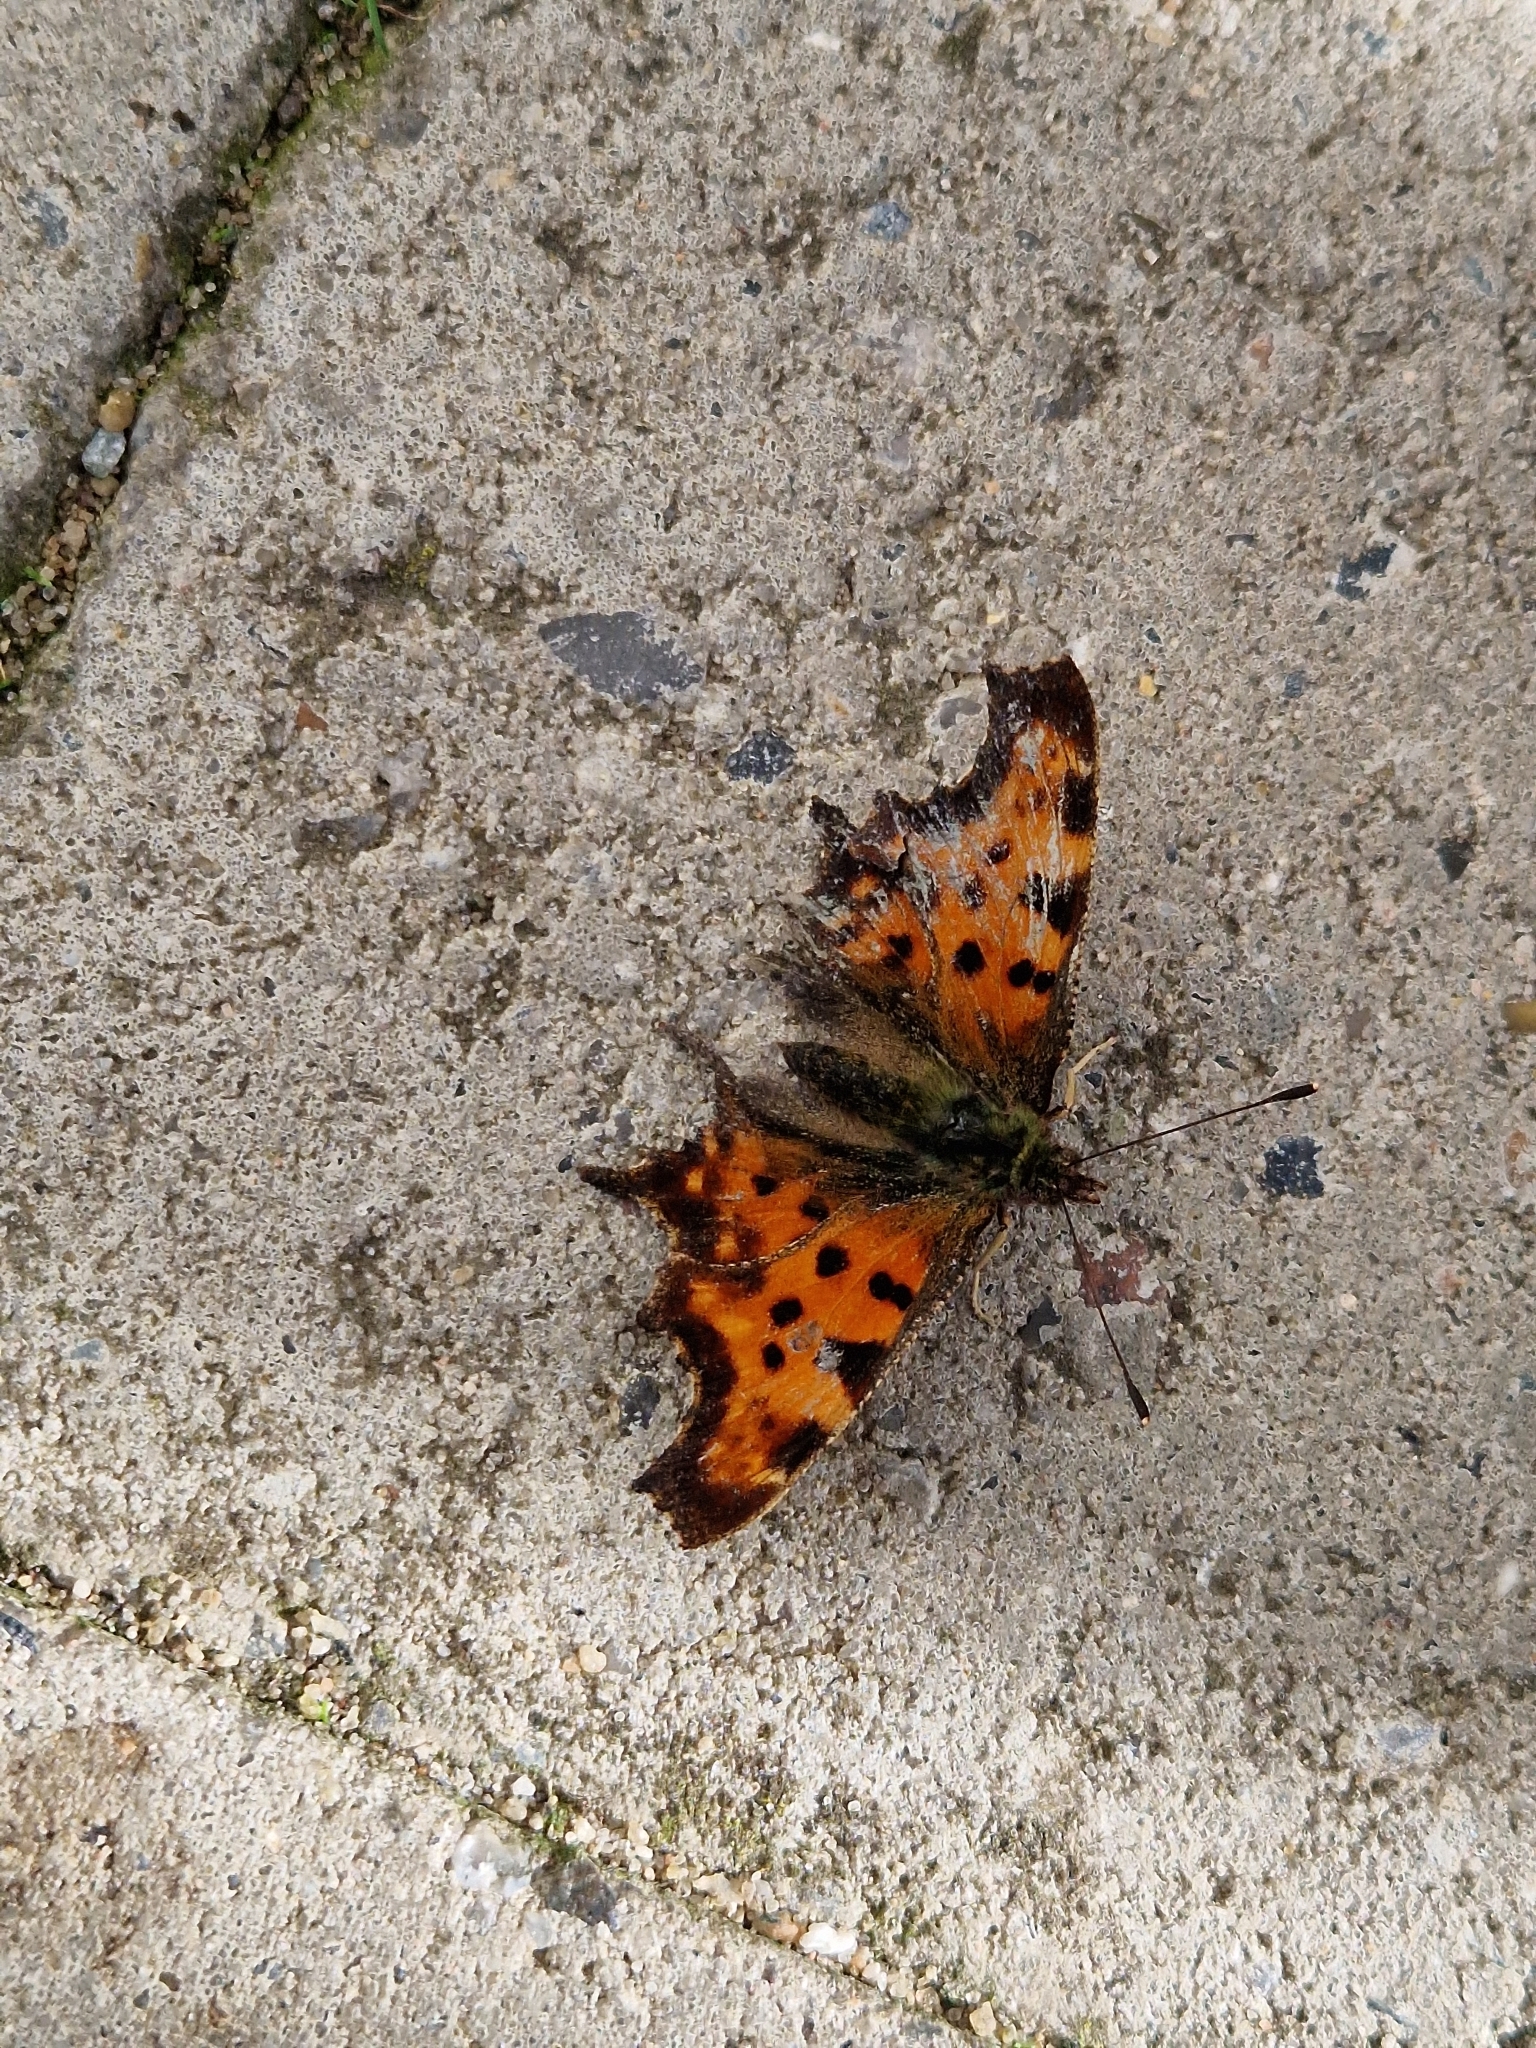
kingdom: Animalia
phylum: Arthropoda
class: Insecta
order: Lepidoptera
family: Nymphalidae
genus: Polygonia
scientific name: Polygonia c-album
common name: Comma
